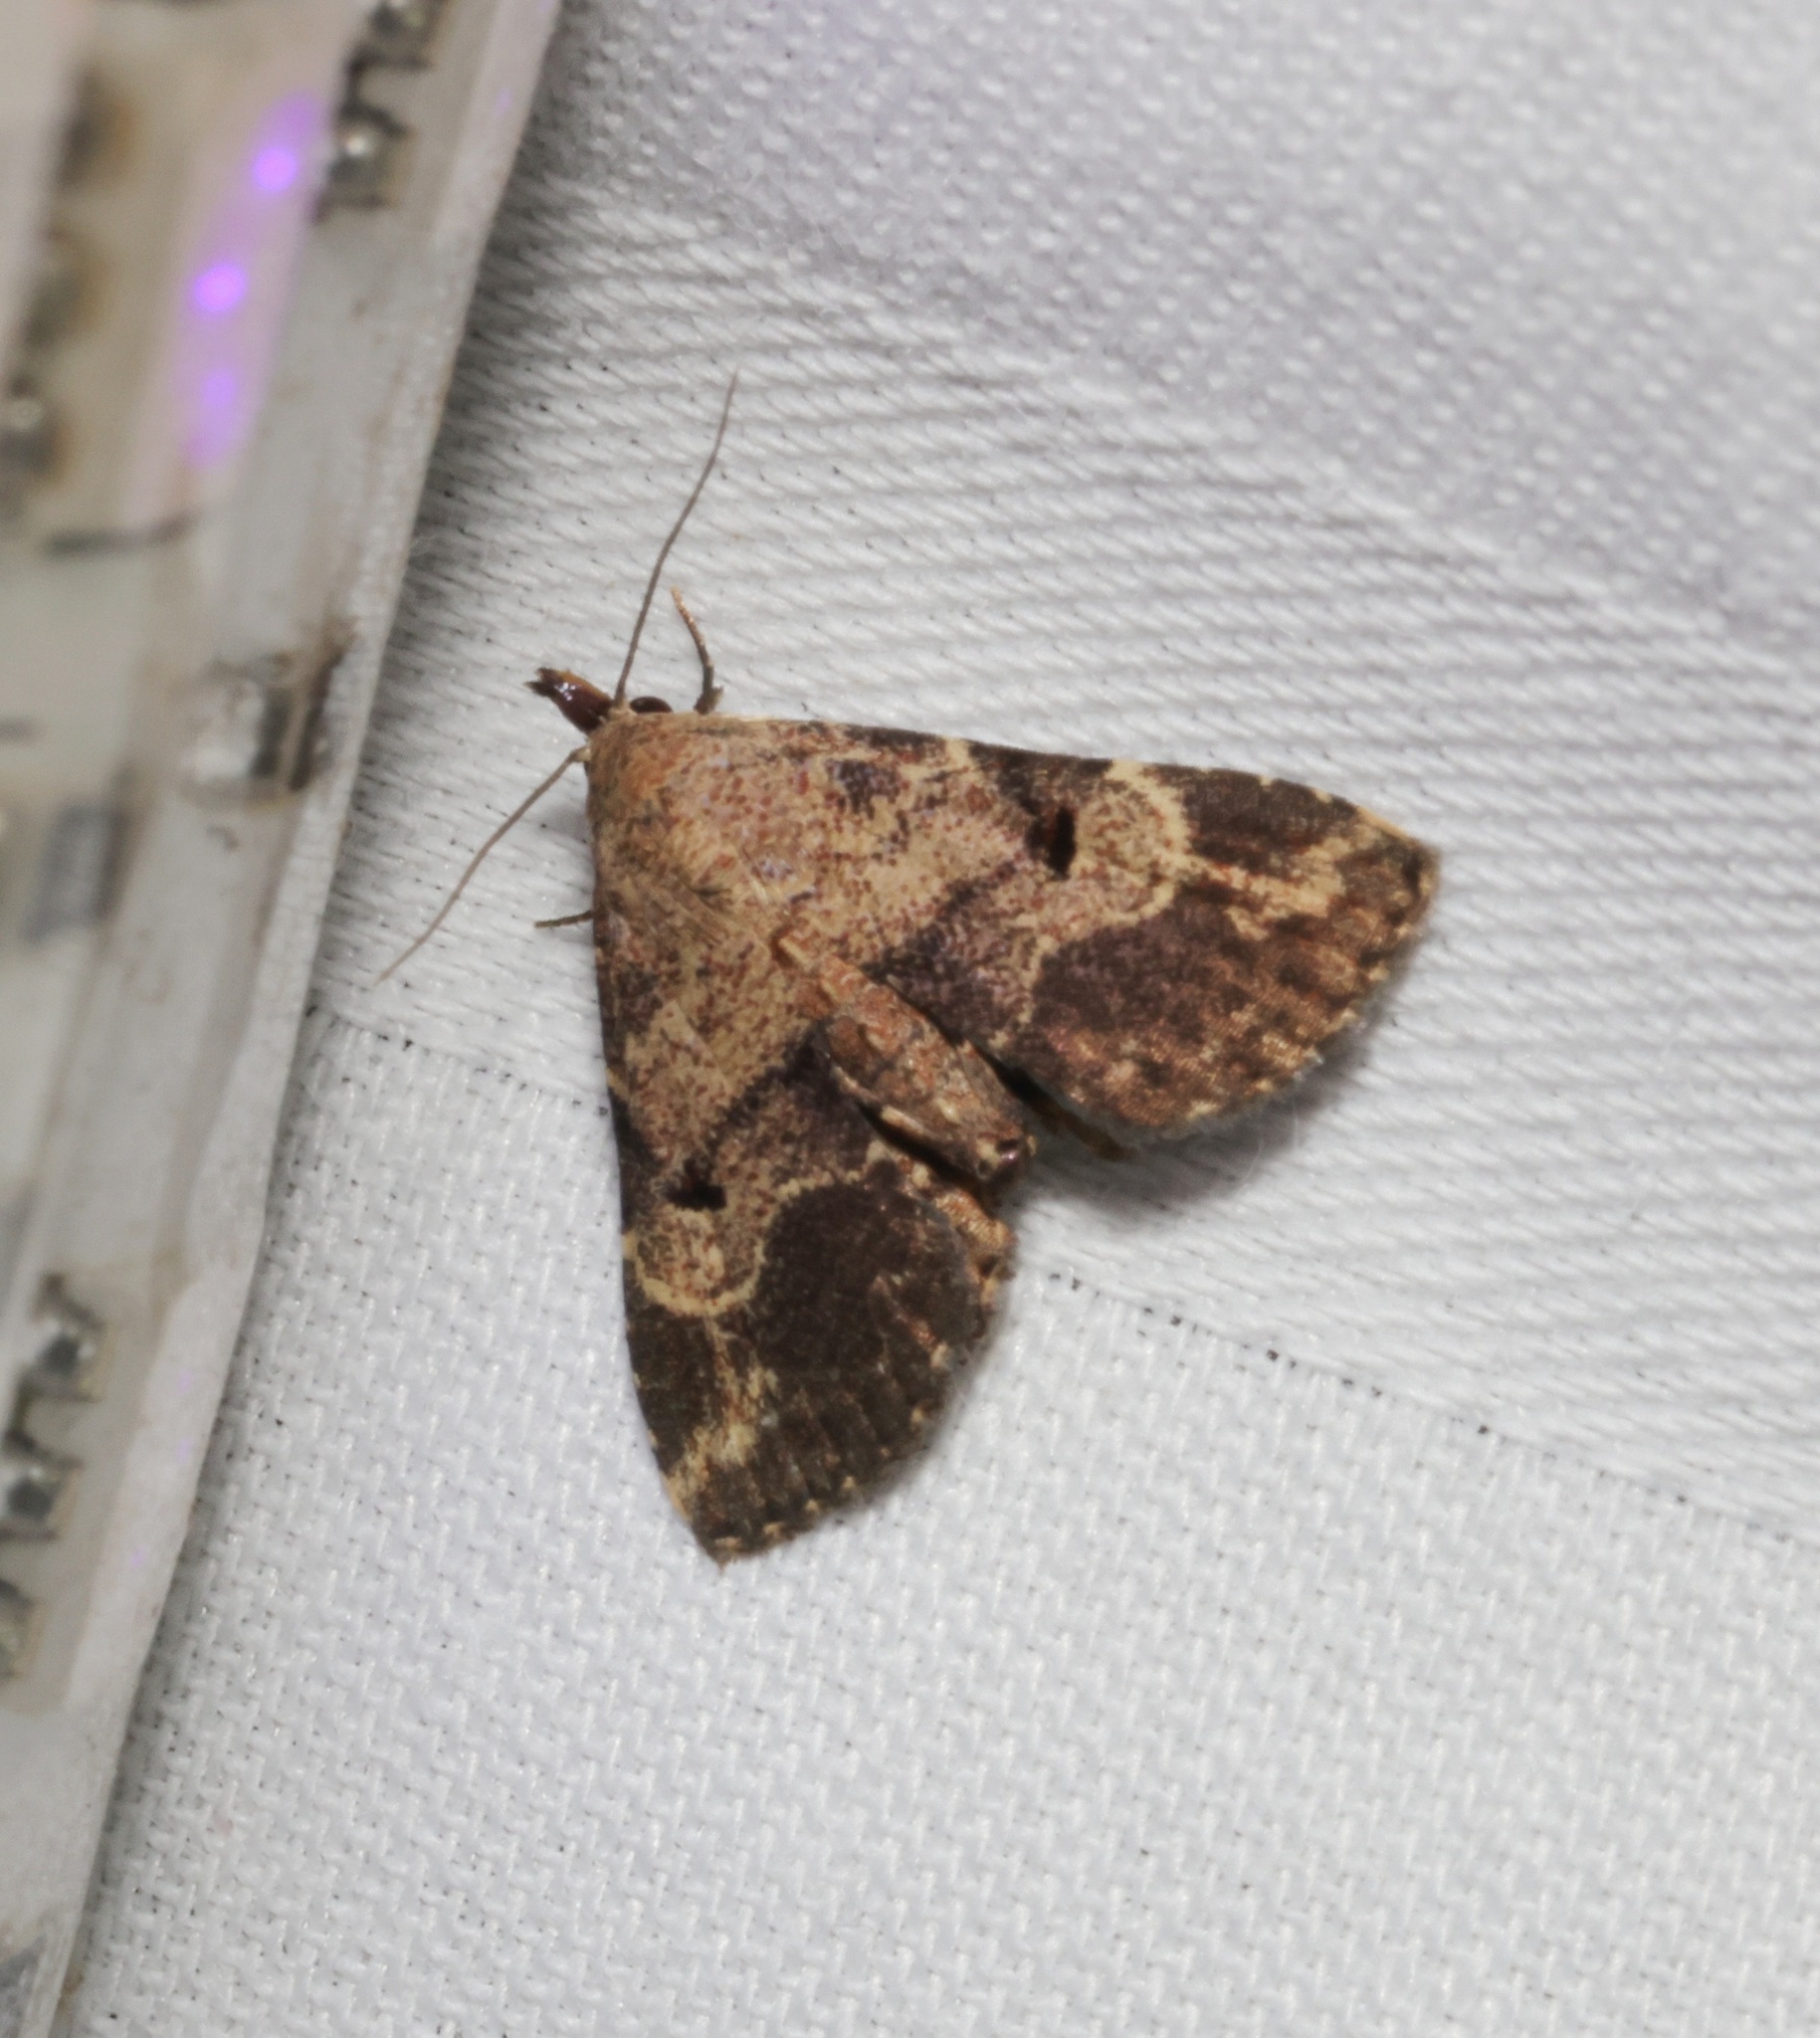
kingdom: Animalia
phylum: Arthropoda
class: Insecta
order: Lepidoptera
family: Erebidae
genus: Maguda
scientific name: Maguda suffusa
